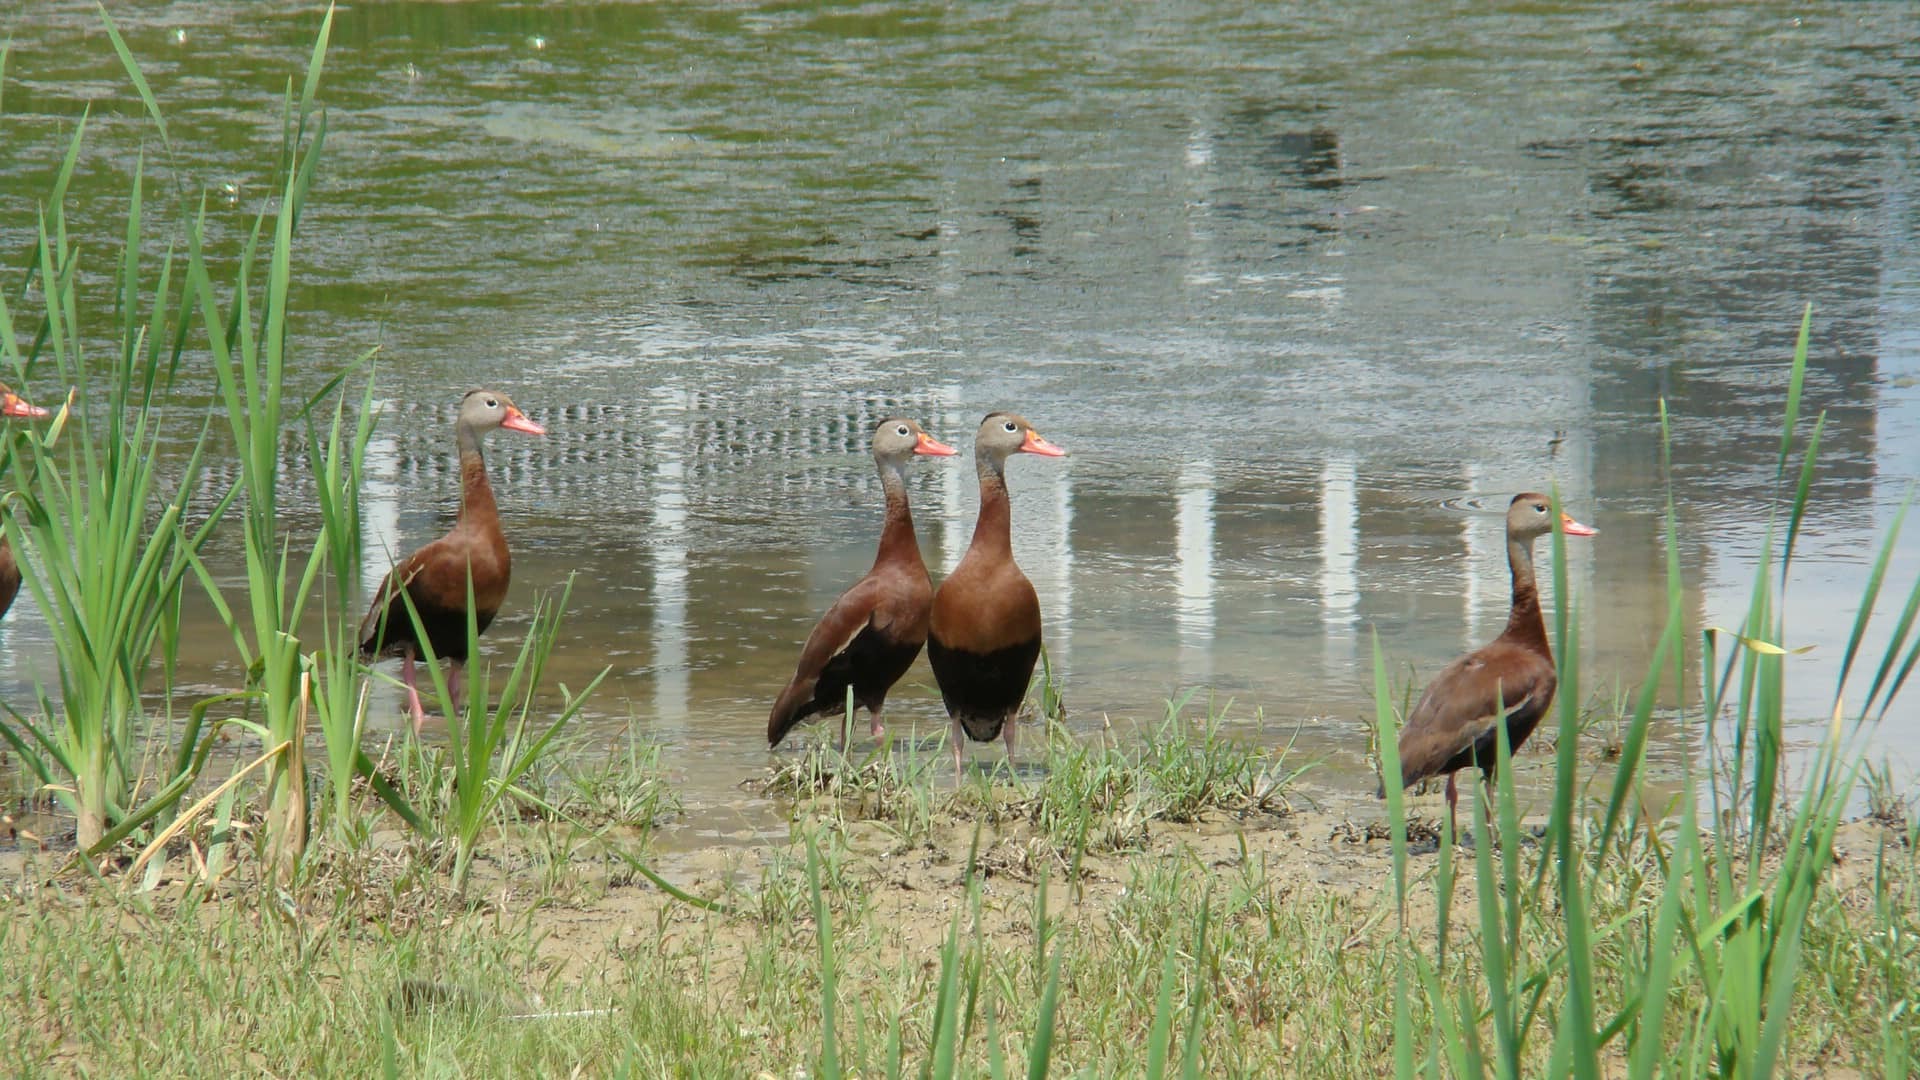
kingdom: Animalia
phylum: Chordata
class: Aves
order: Anseriformes
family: Anatidae
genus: Dendrocygna
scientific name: Dendrocygna autumnalis
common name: Black-bellied whistling duck
